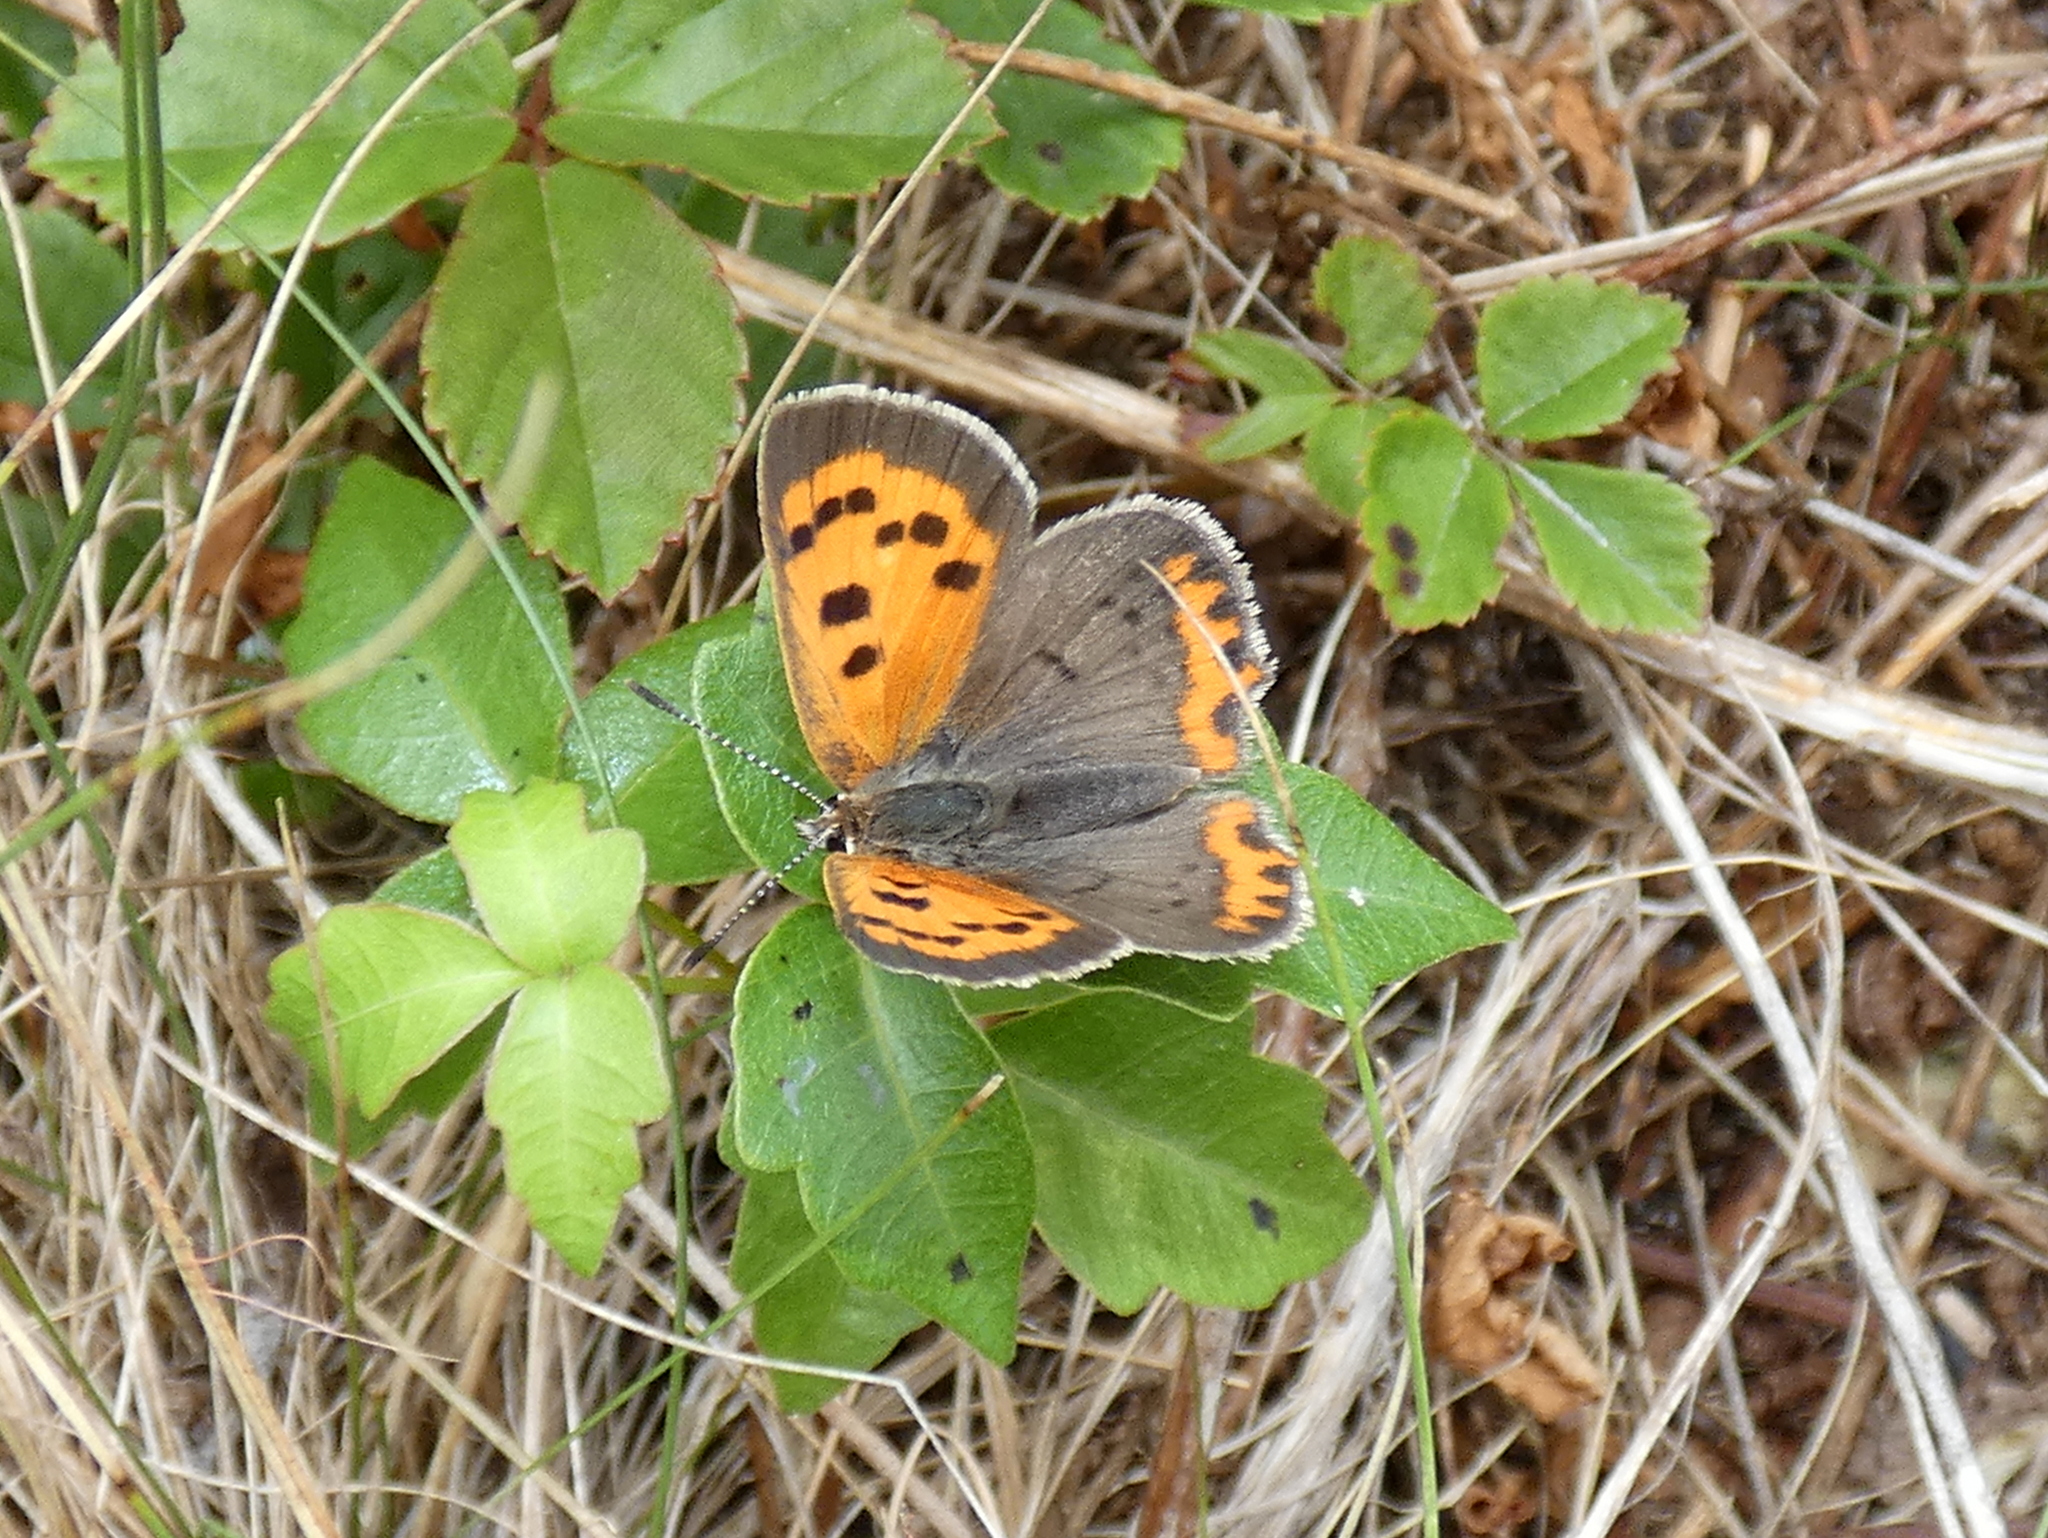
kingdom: Animalia
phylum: Arthropoda
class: Insecta
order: Lepidoptera
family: Lycaenidae
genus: Lycaena
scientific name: Lycaena hypophlaeas
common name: American copper
